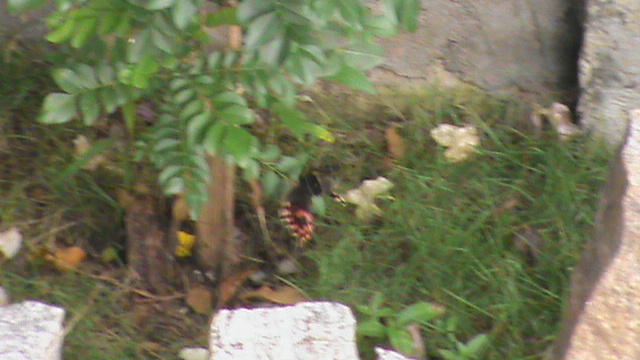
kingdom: Animalia
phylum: Arthropoda
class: Insecta
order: Lepidoptera
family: Papilionidae
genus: Papilio
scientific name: Papilio polytes
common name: Common mormon
